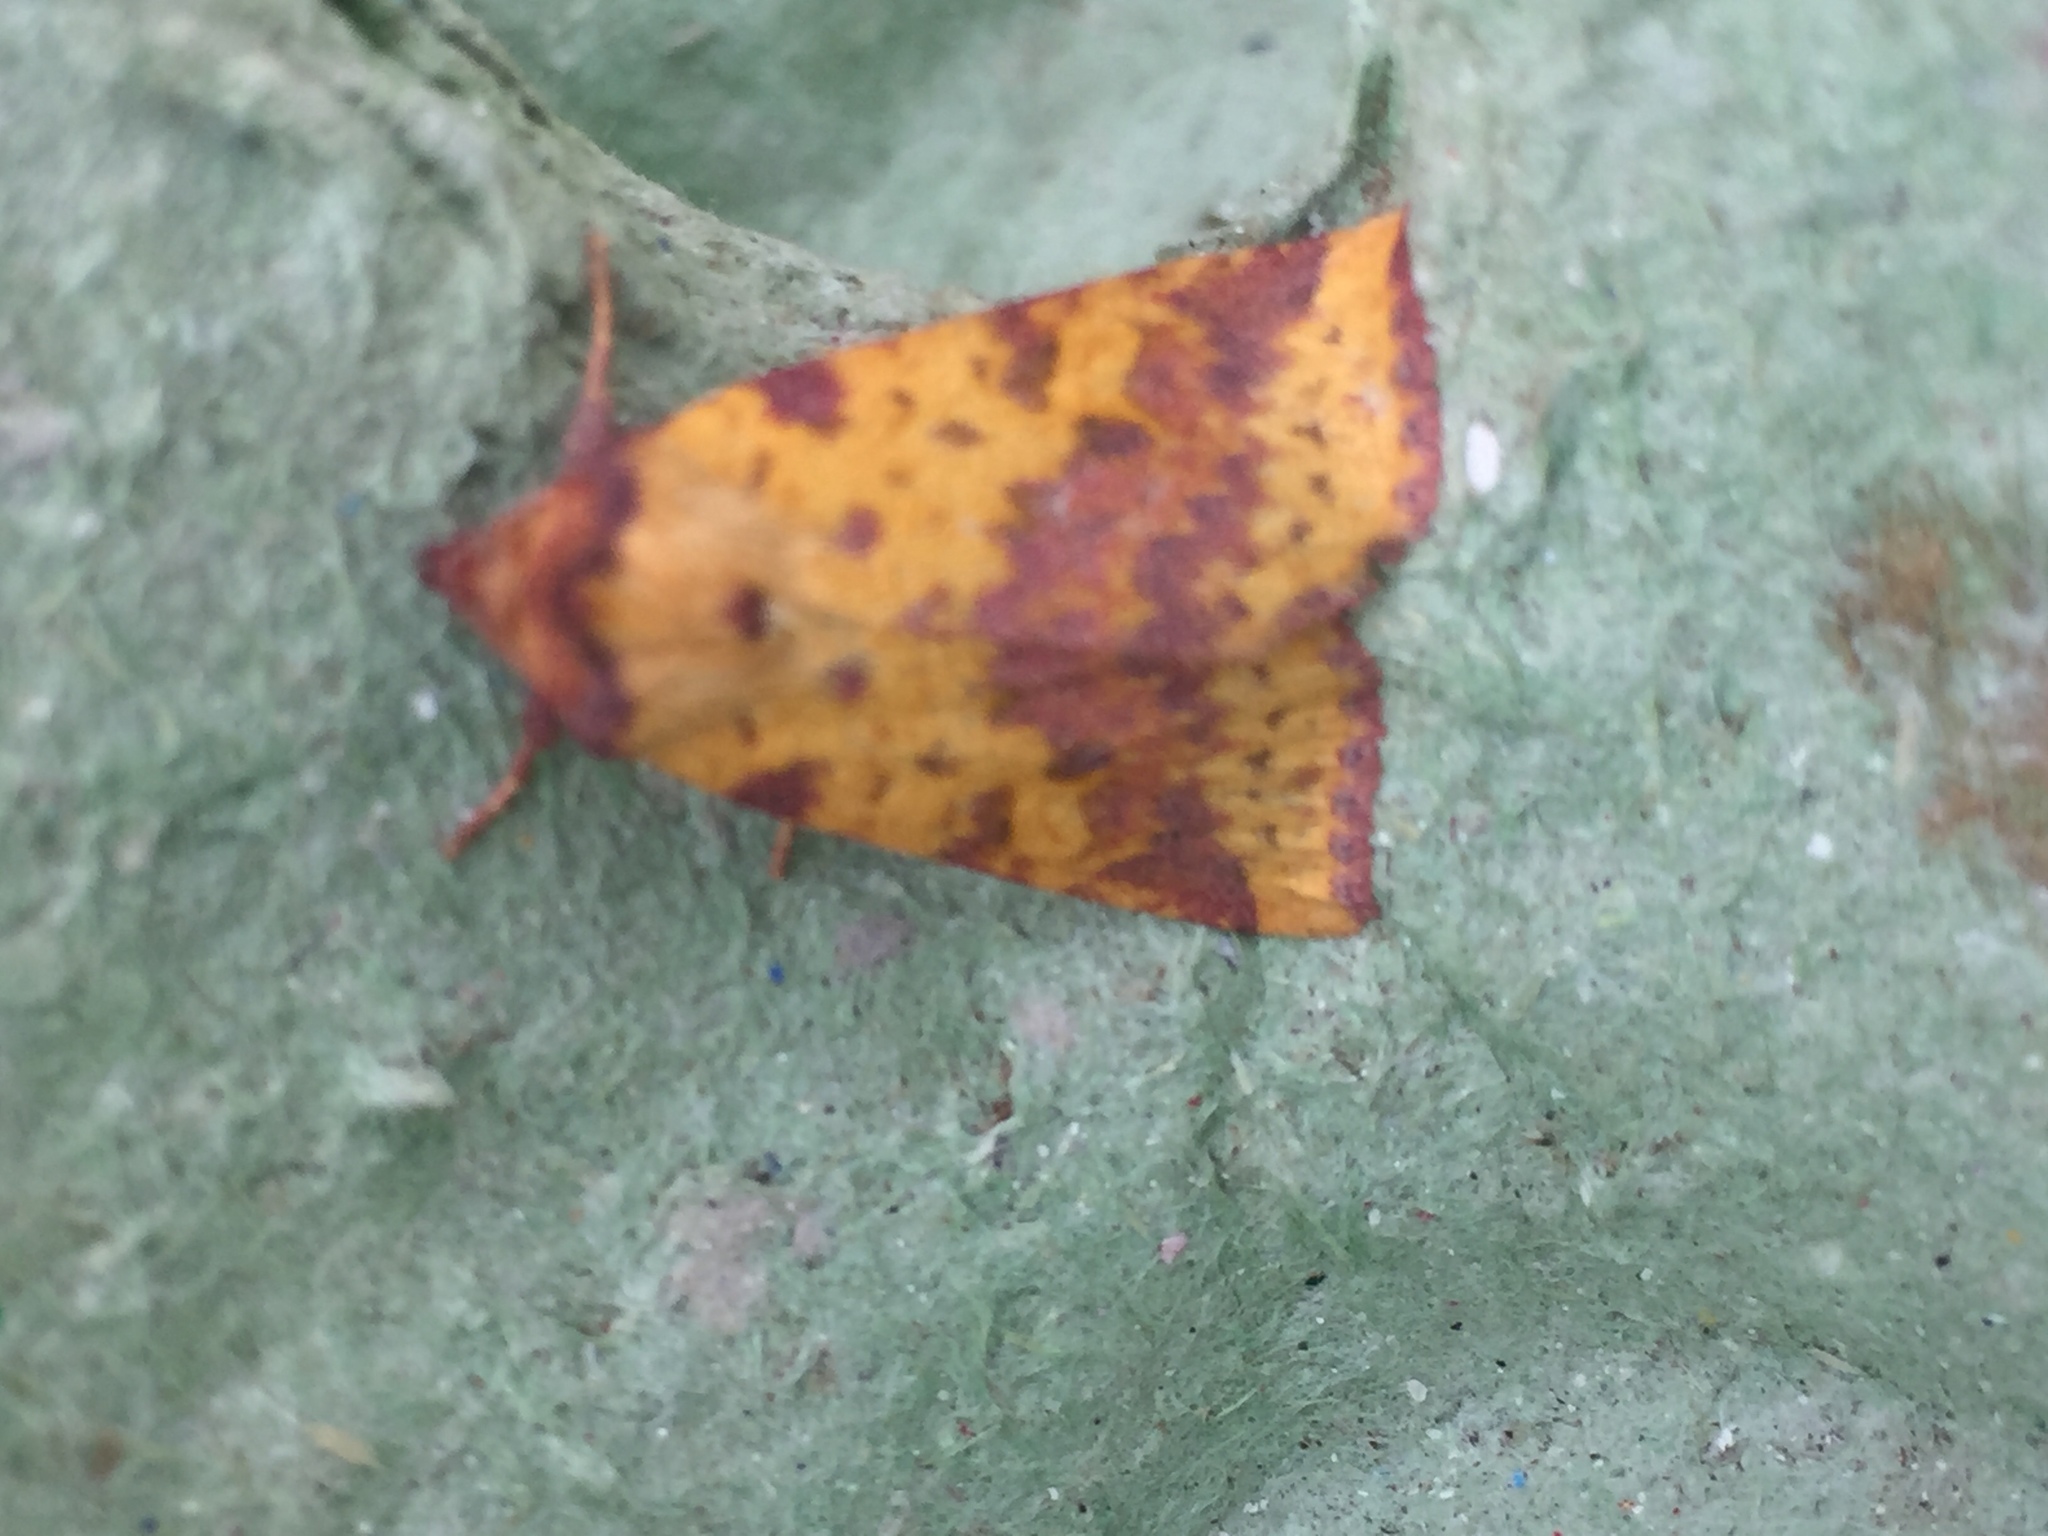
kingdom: Animalia
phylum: Arthropoda
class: Insecta
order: Lepidoptera
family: Noctuidae
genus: Xanthia
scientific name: Xanthia togata
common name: Pink-barred sallow
